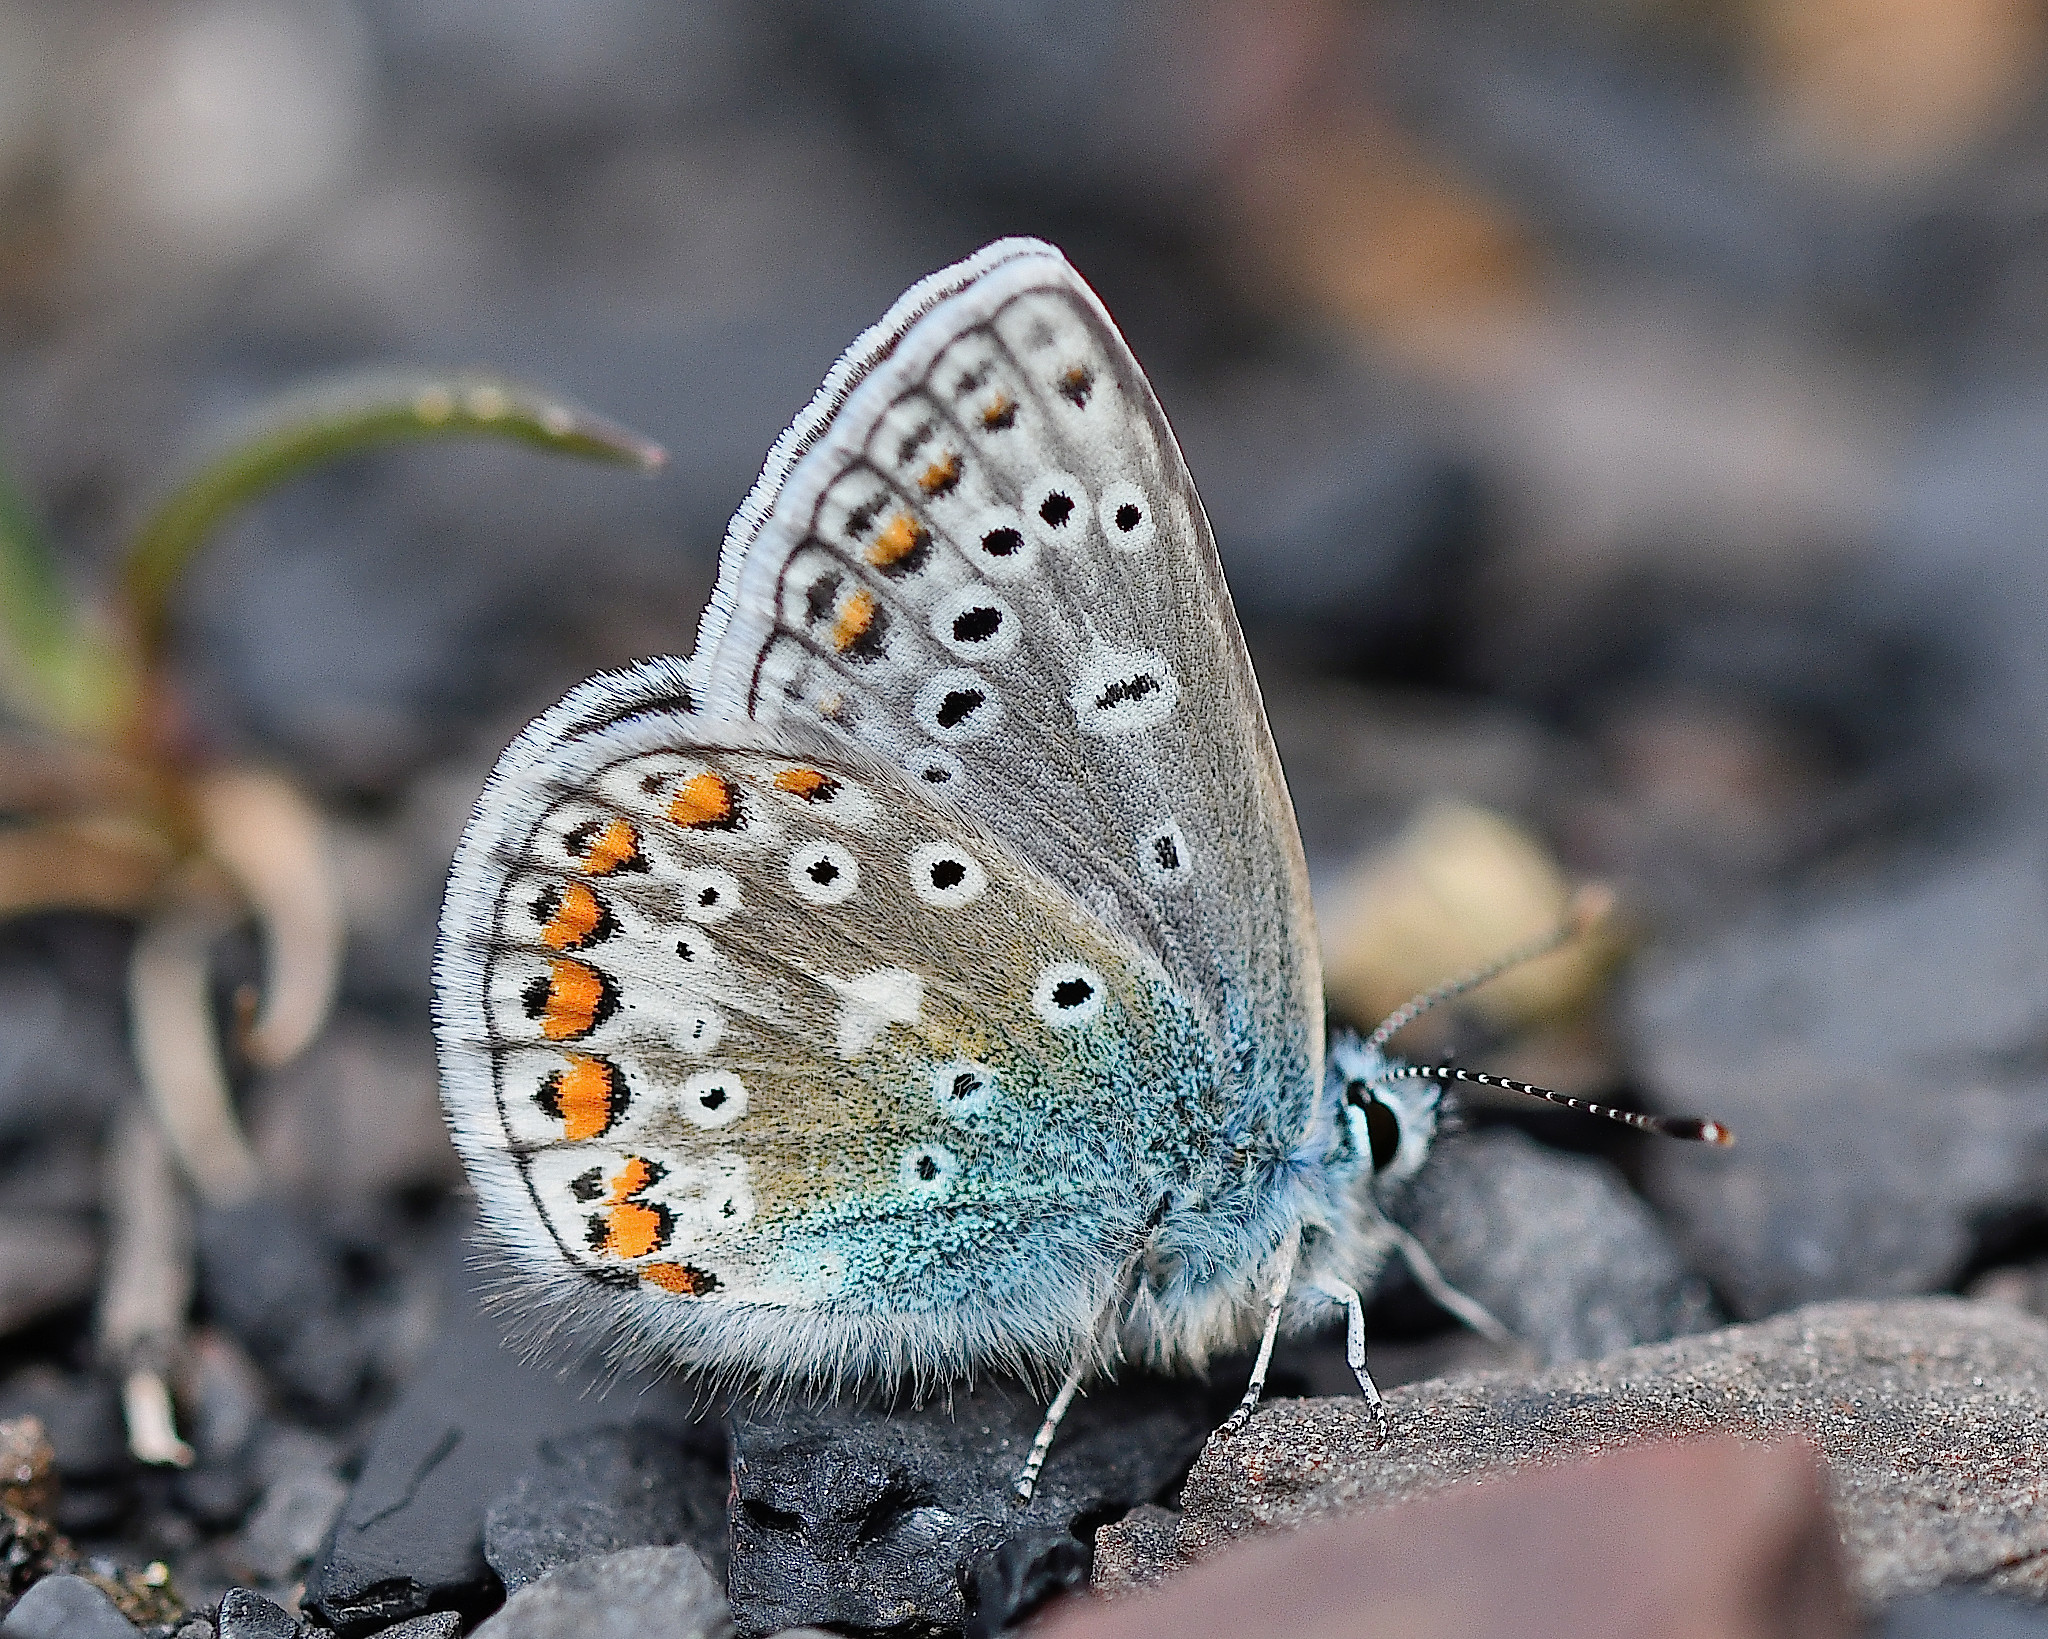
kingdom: Animalia
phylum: Arthropoda
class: Insecta
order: Lepidoptera
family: Lycaenidae
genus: Polyommatus
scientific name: Polyommatus icarus
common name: Common blue
